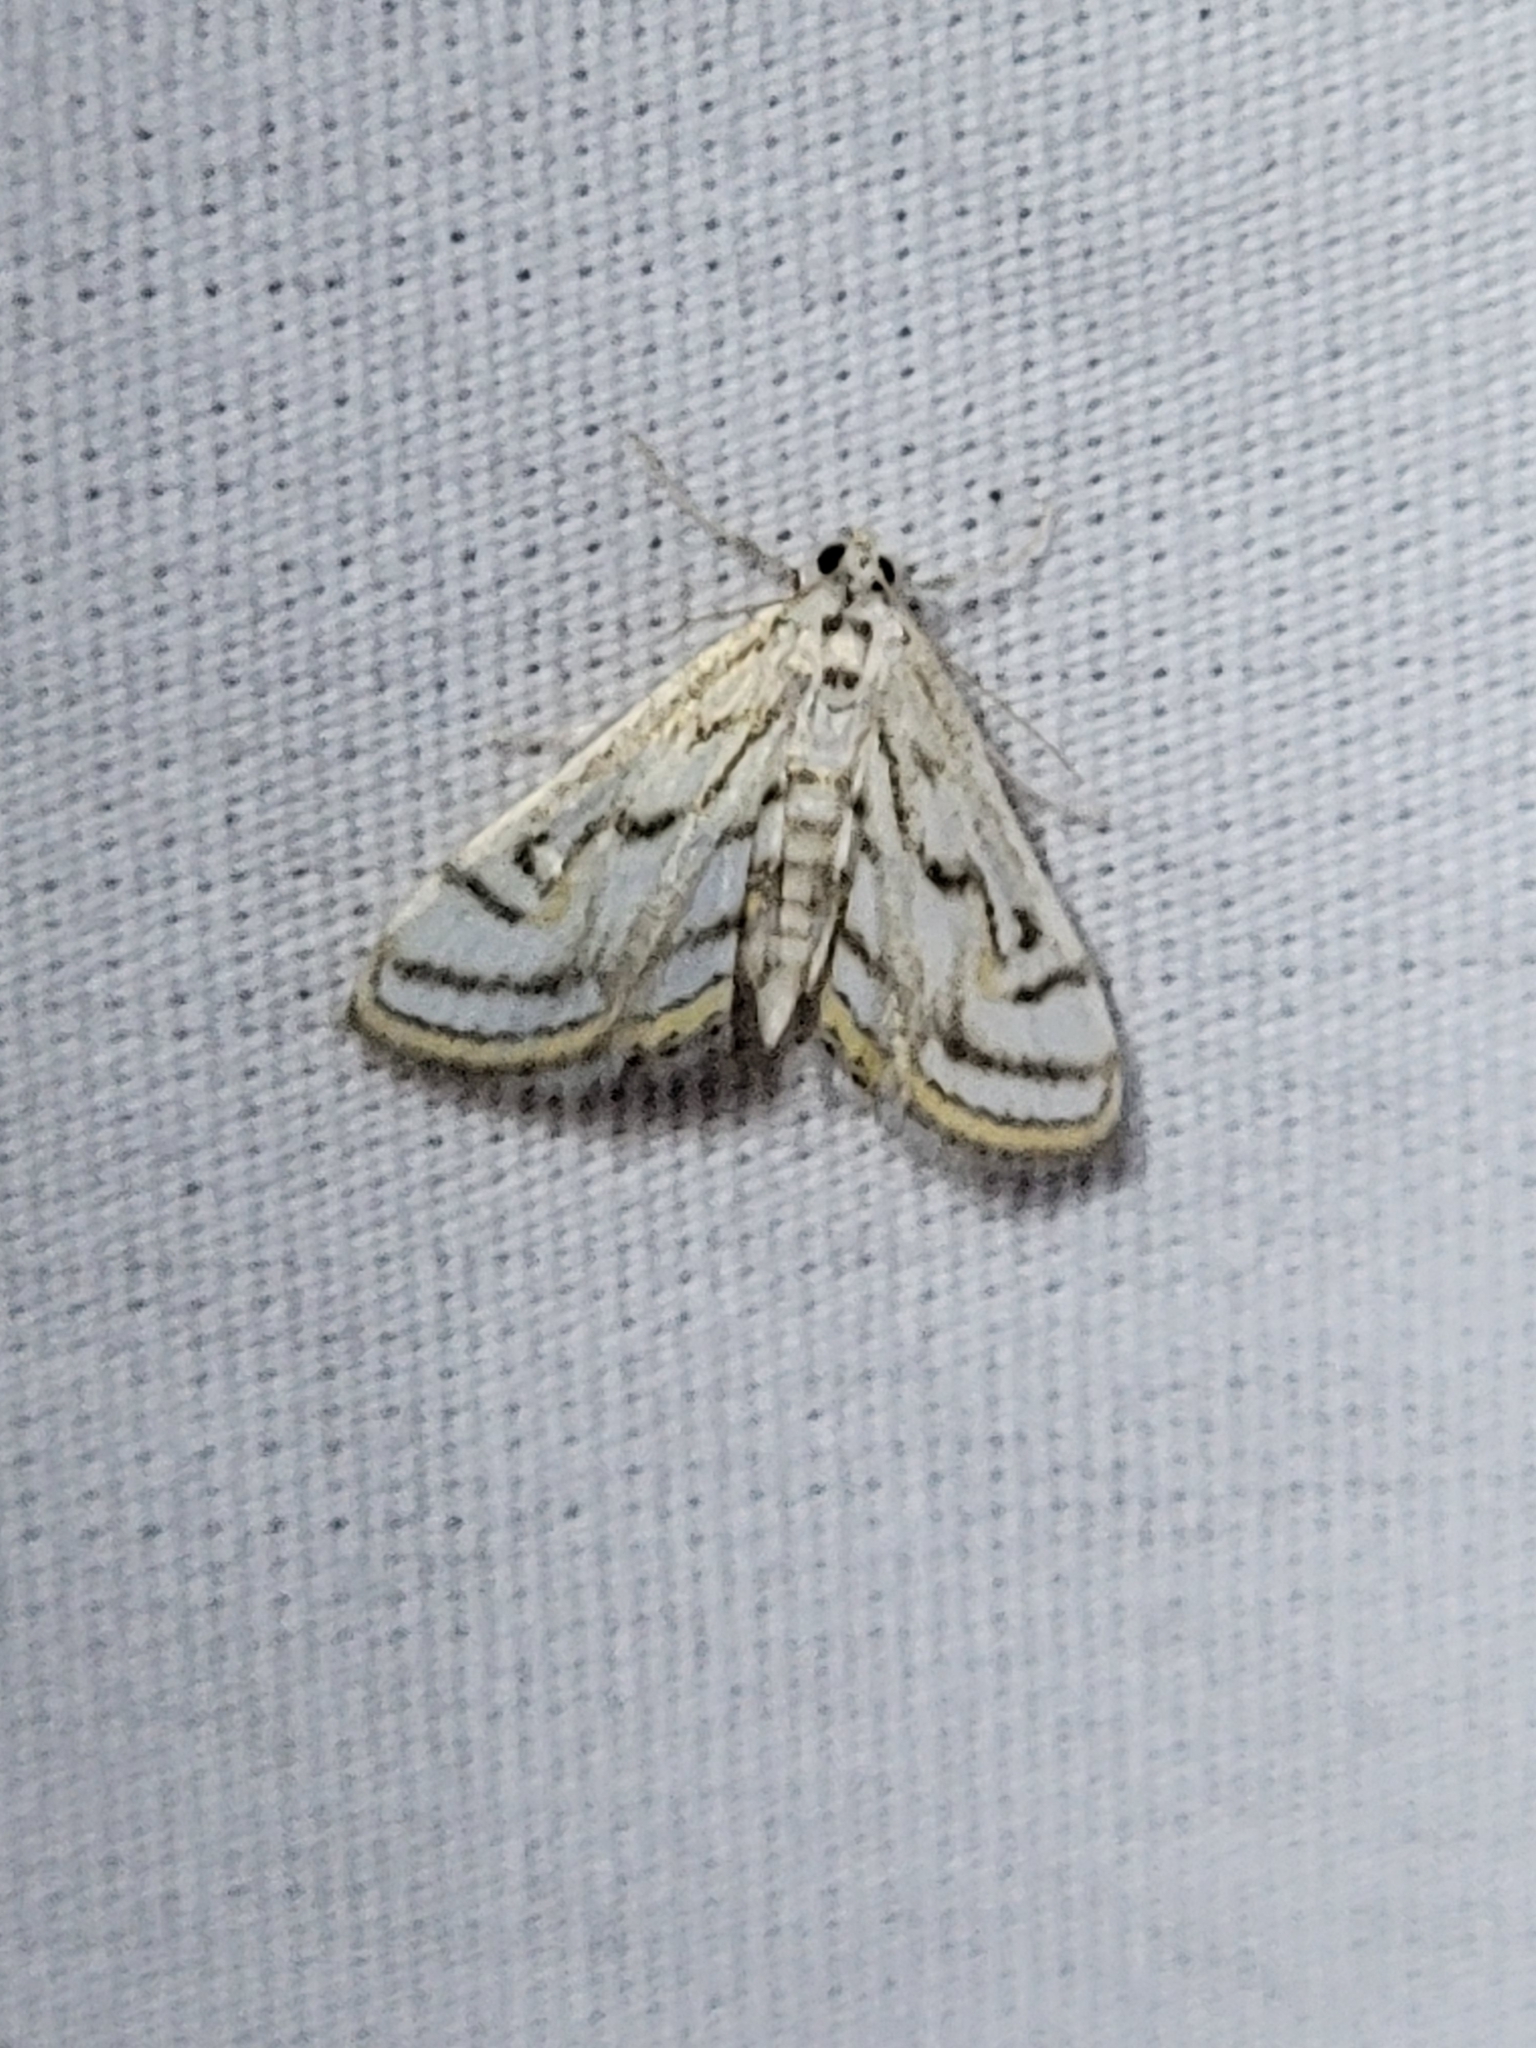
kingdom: Animalia
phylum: Arthropoda
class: Insecta
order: Lepidoptera
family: Crambidae
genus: Parapoynx
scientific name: Parapoynx badiusalis
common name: Chestnut-marked pondweed moth
